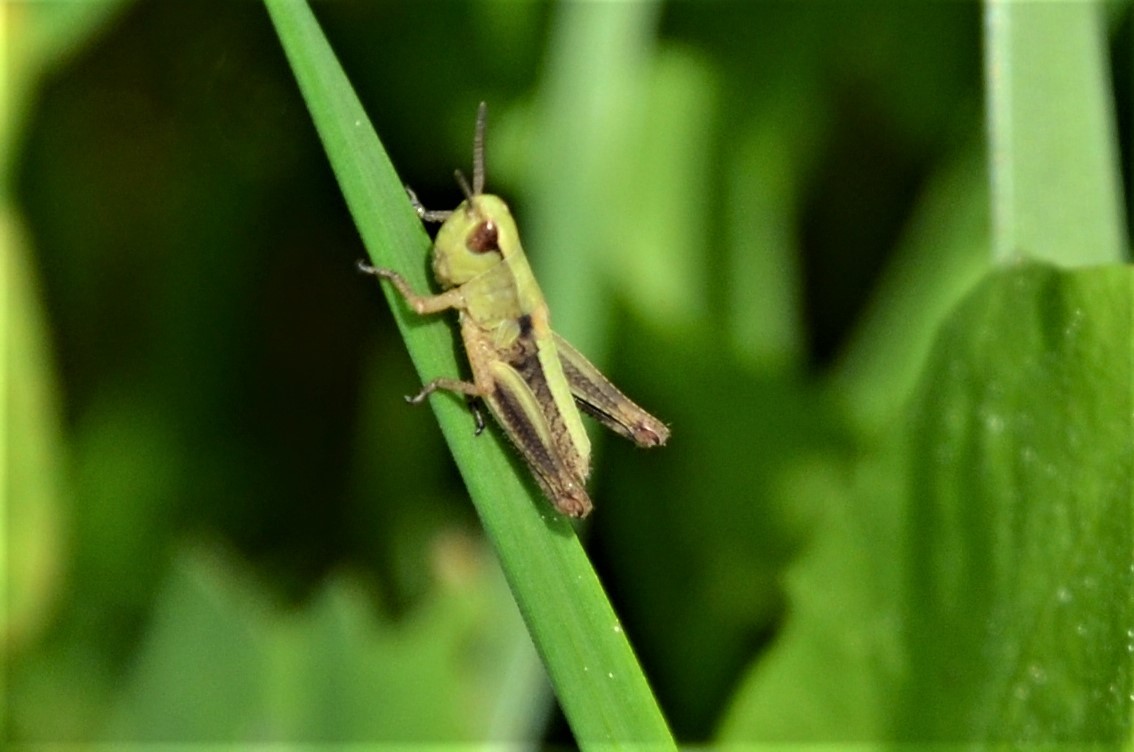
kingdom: Animalia
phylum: Arthropoda
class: Insecta
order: Orthoptera
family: Acrididae
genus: Pseudochorthippus
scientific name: Pseudochorthippus parallelus
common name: Meadow grasshopper
